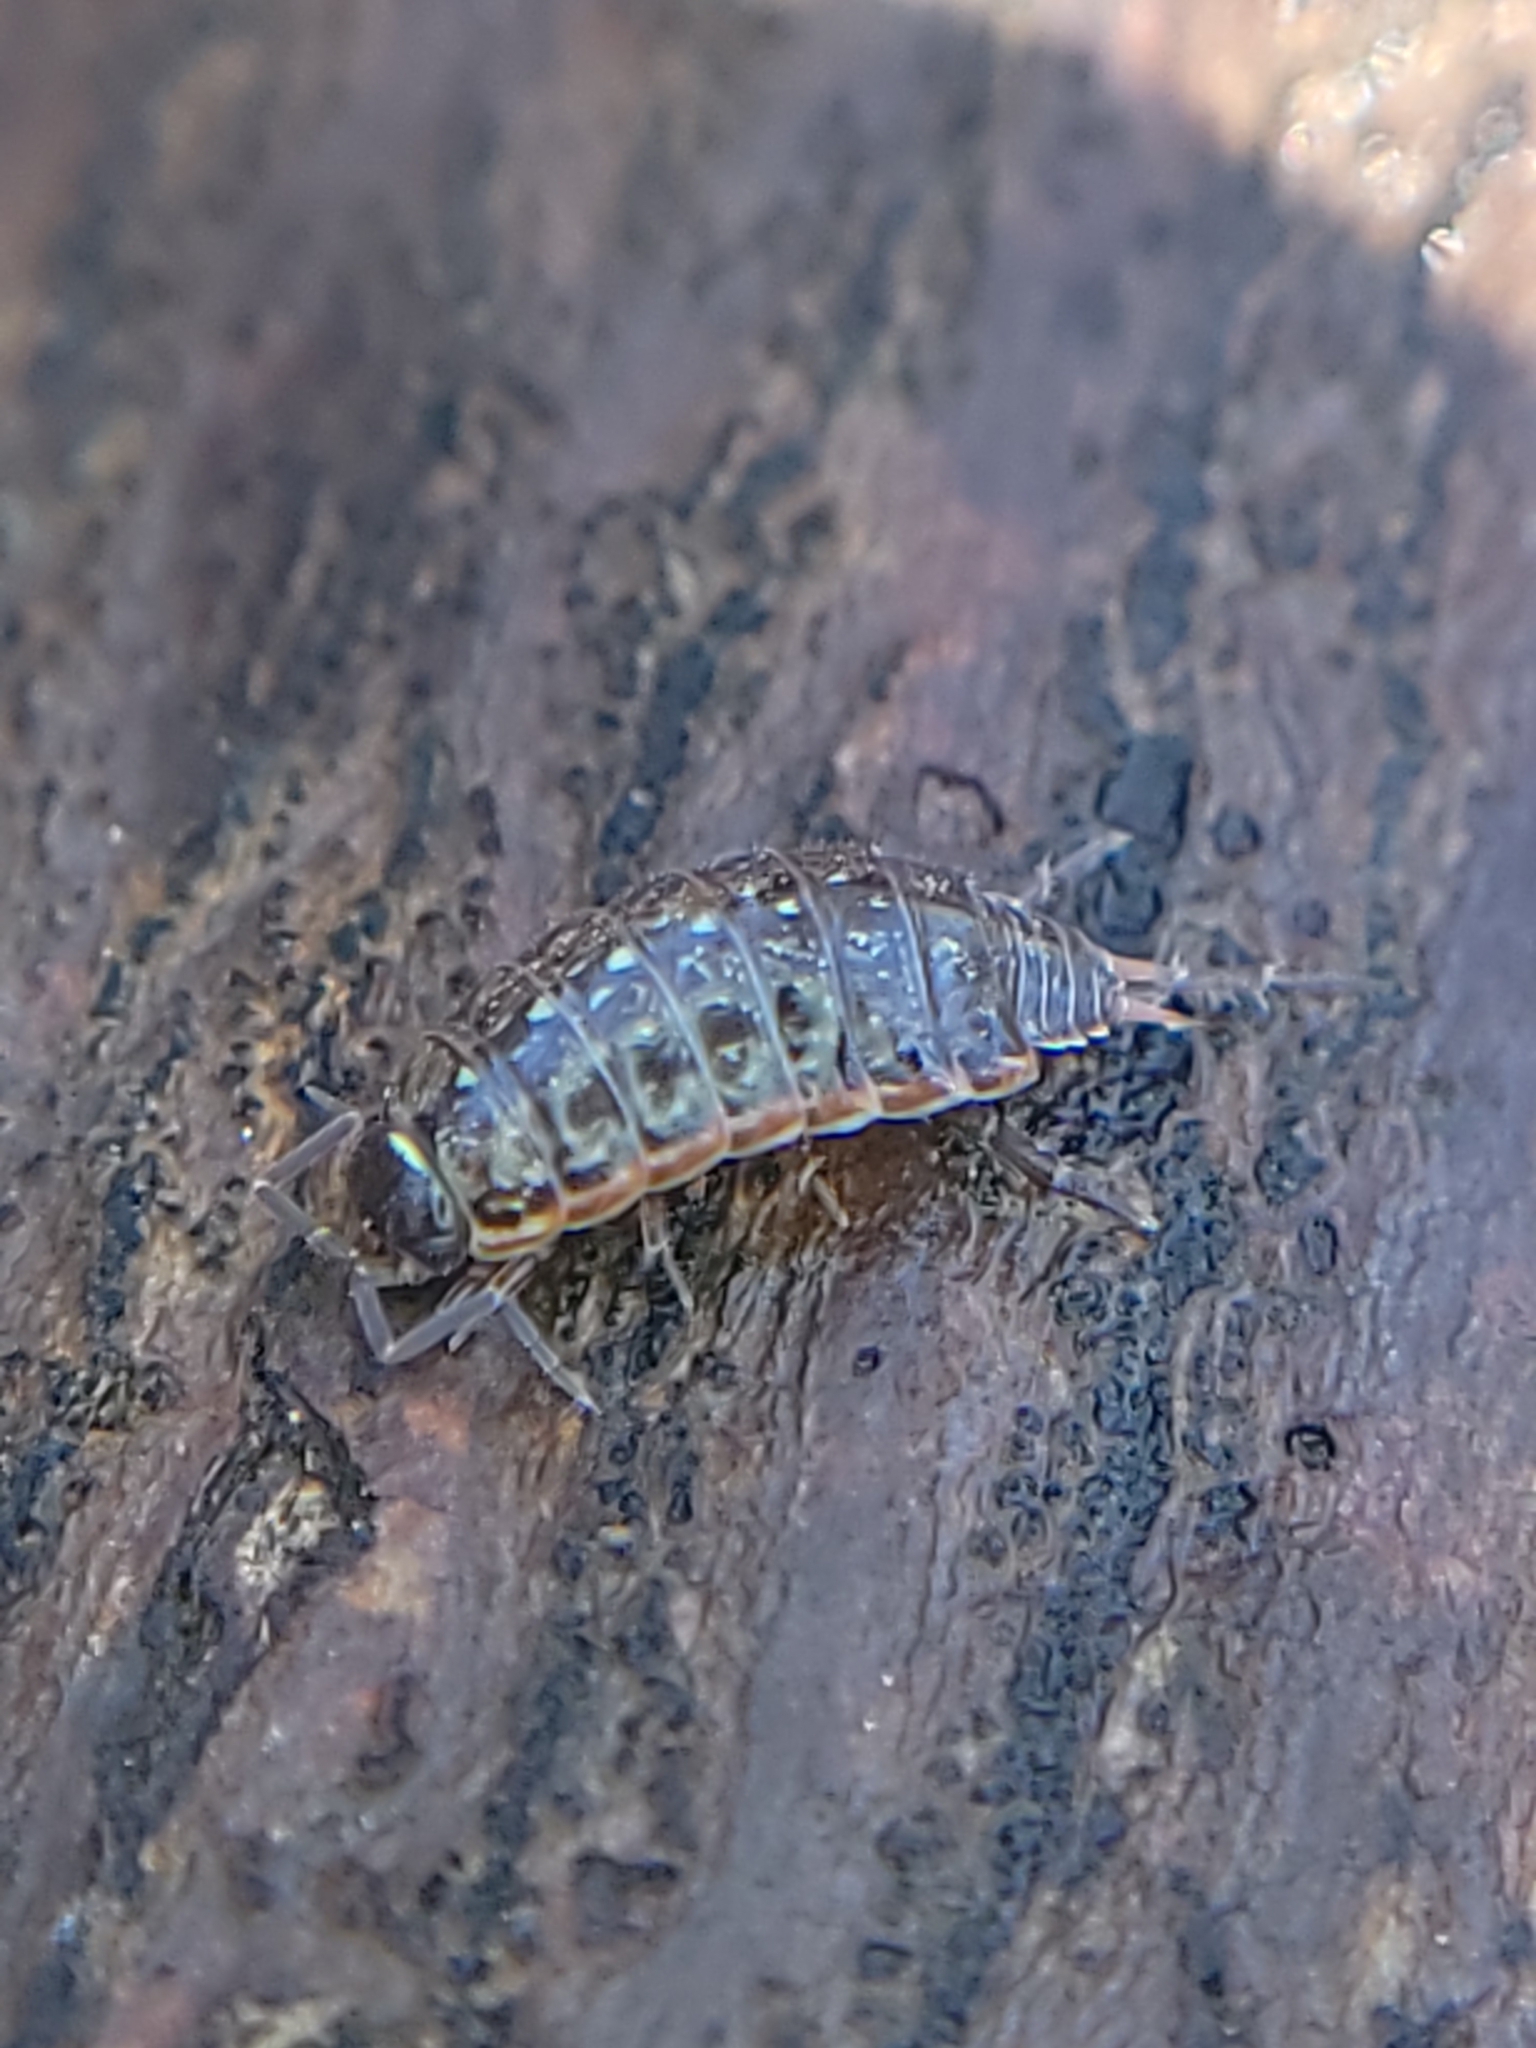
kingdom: Animalia
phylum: Arthropoda
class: Malacostraca
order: Isopoda
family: Philosciidae
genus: Philoscia
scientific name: Philoscia muscorum
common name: Common striped woodlouse
